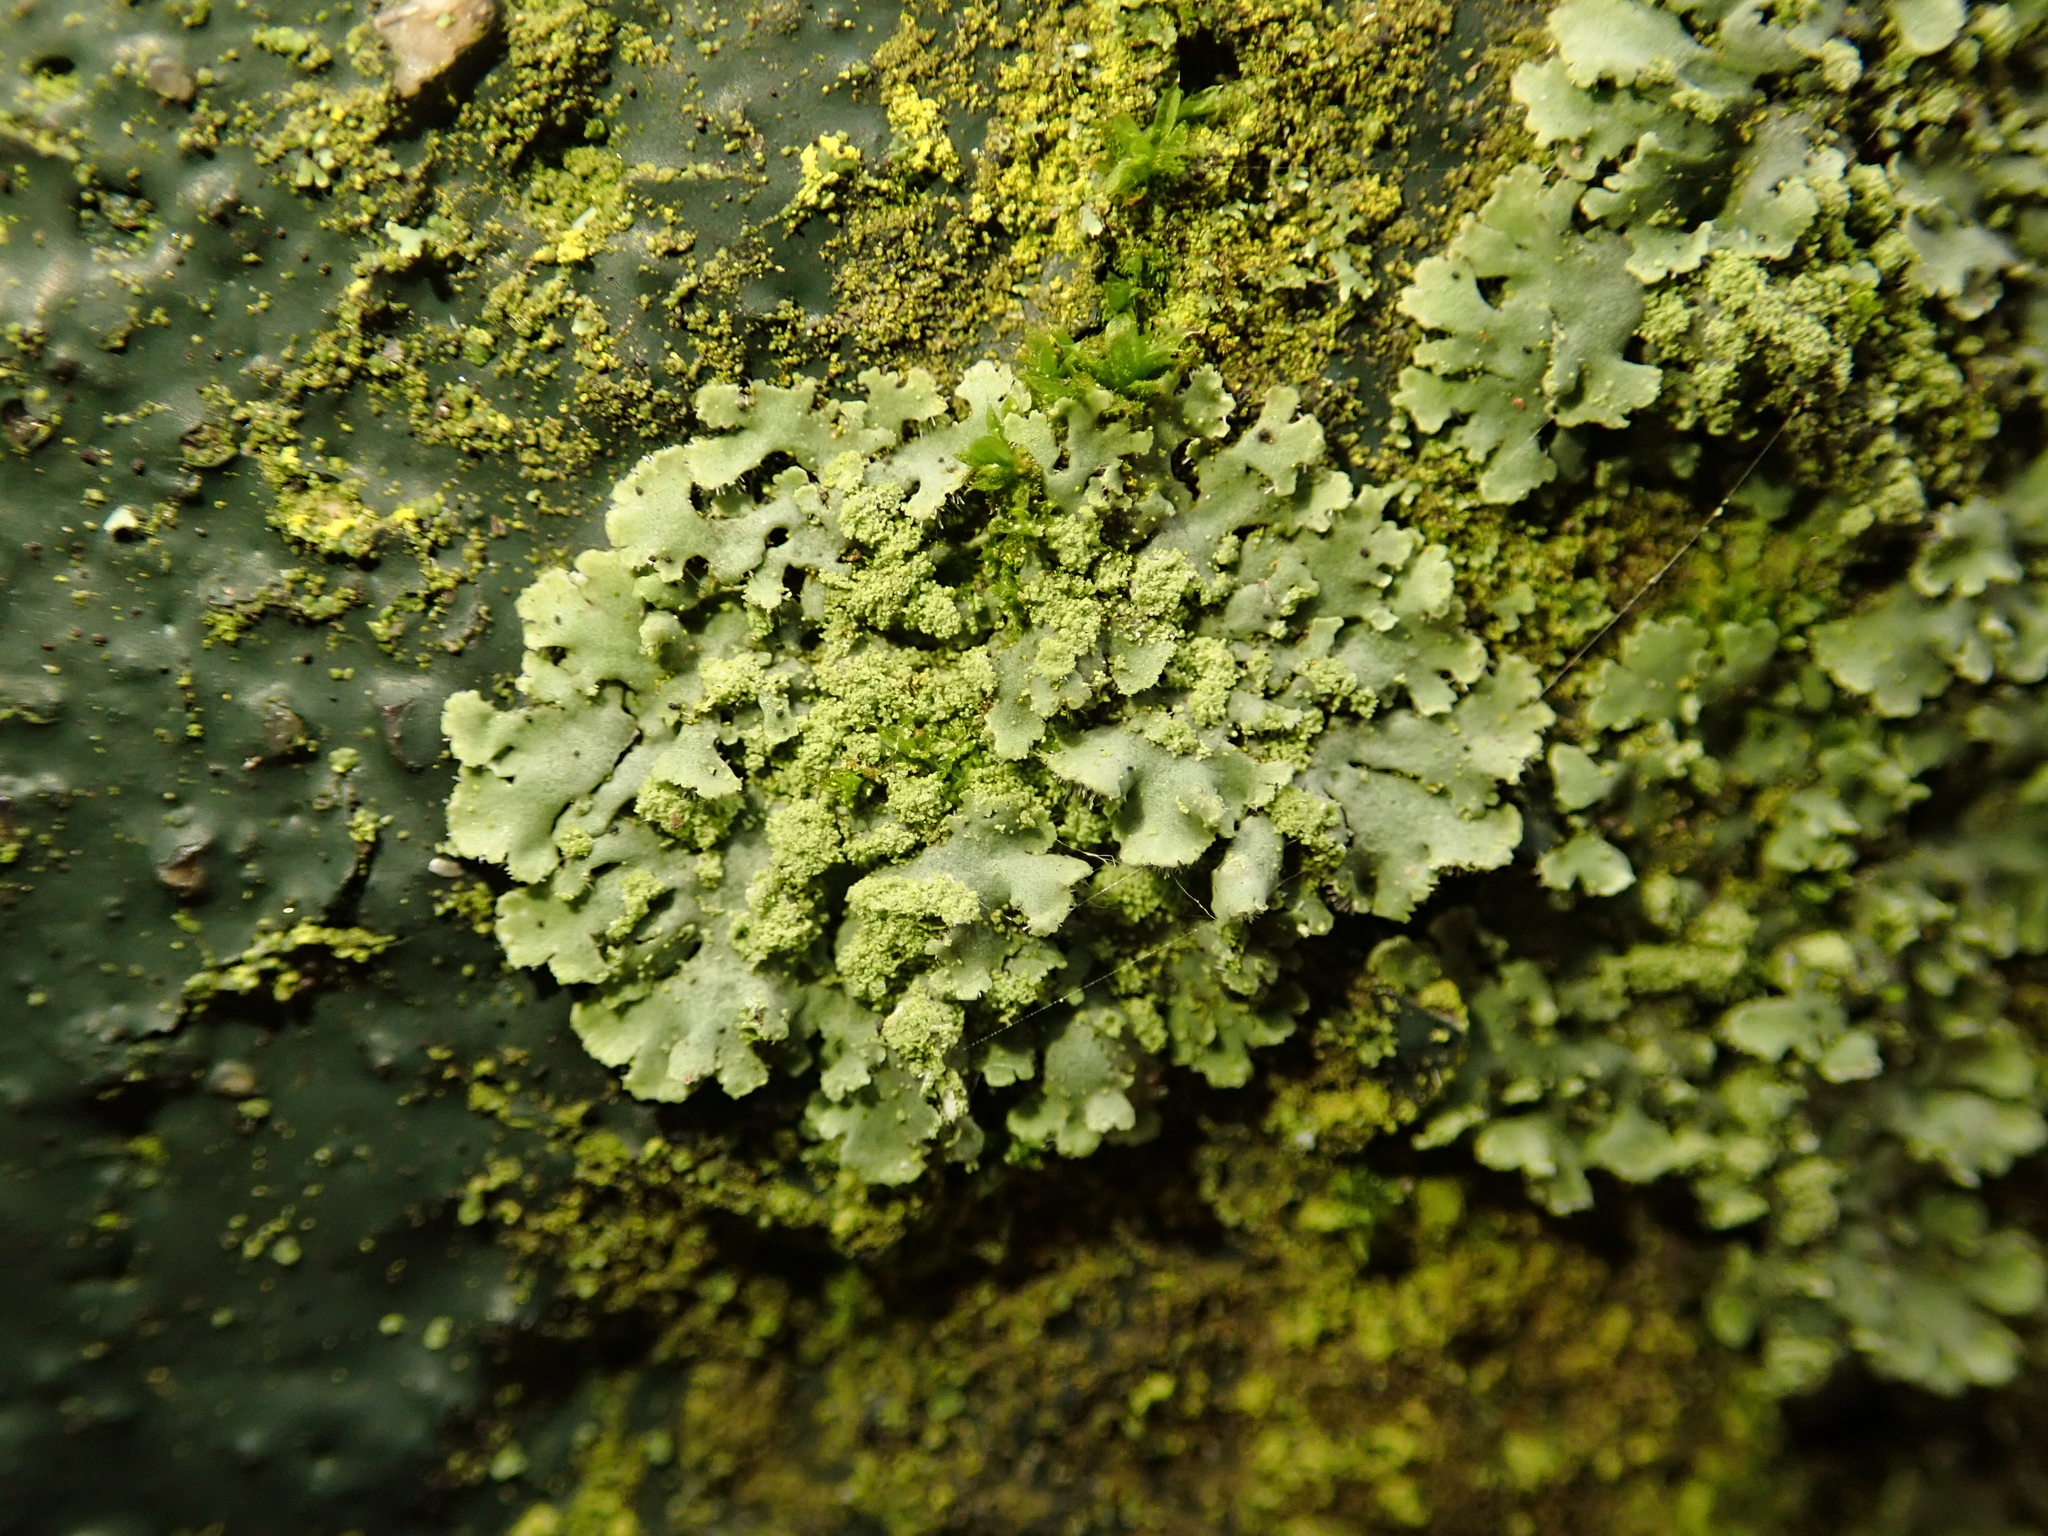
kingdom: Fungi
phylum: Ascomycota
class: Lecanoromycetes
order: Caliciales
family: Physciaceae
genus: Phaeophyscia
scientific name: Phaeophyscia orbicularis
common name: Mealy shadow lichen
